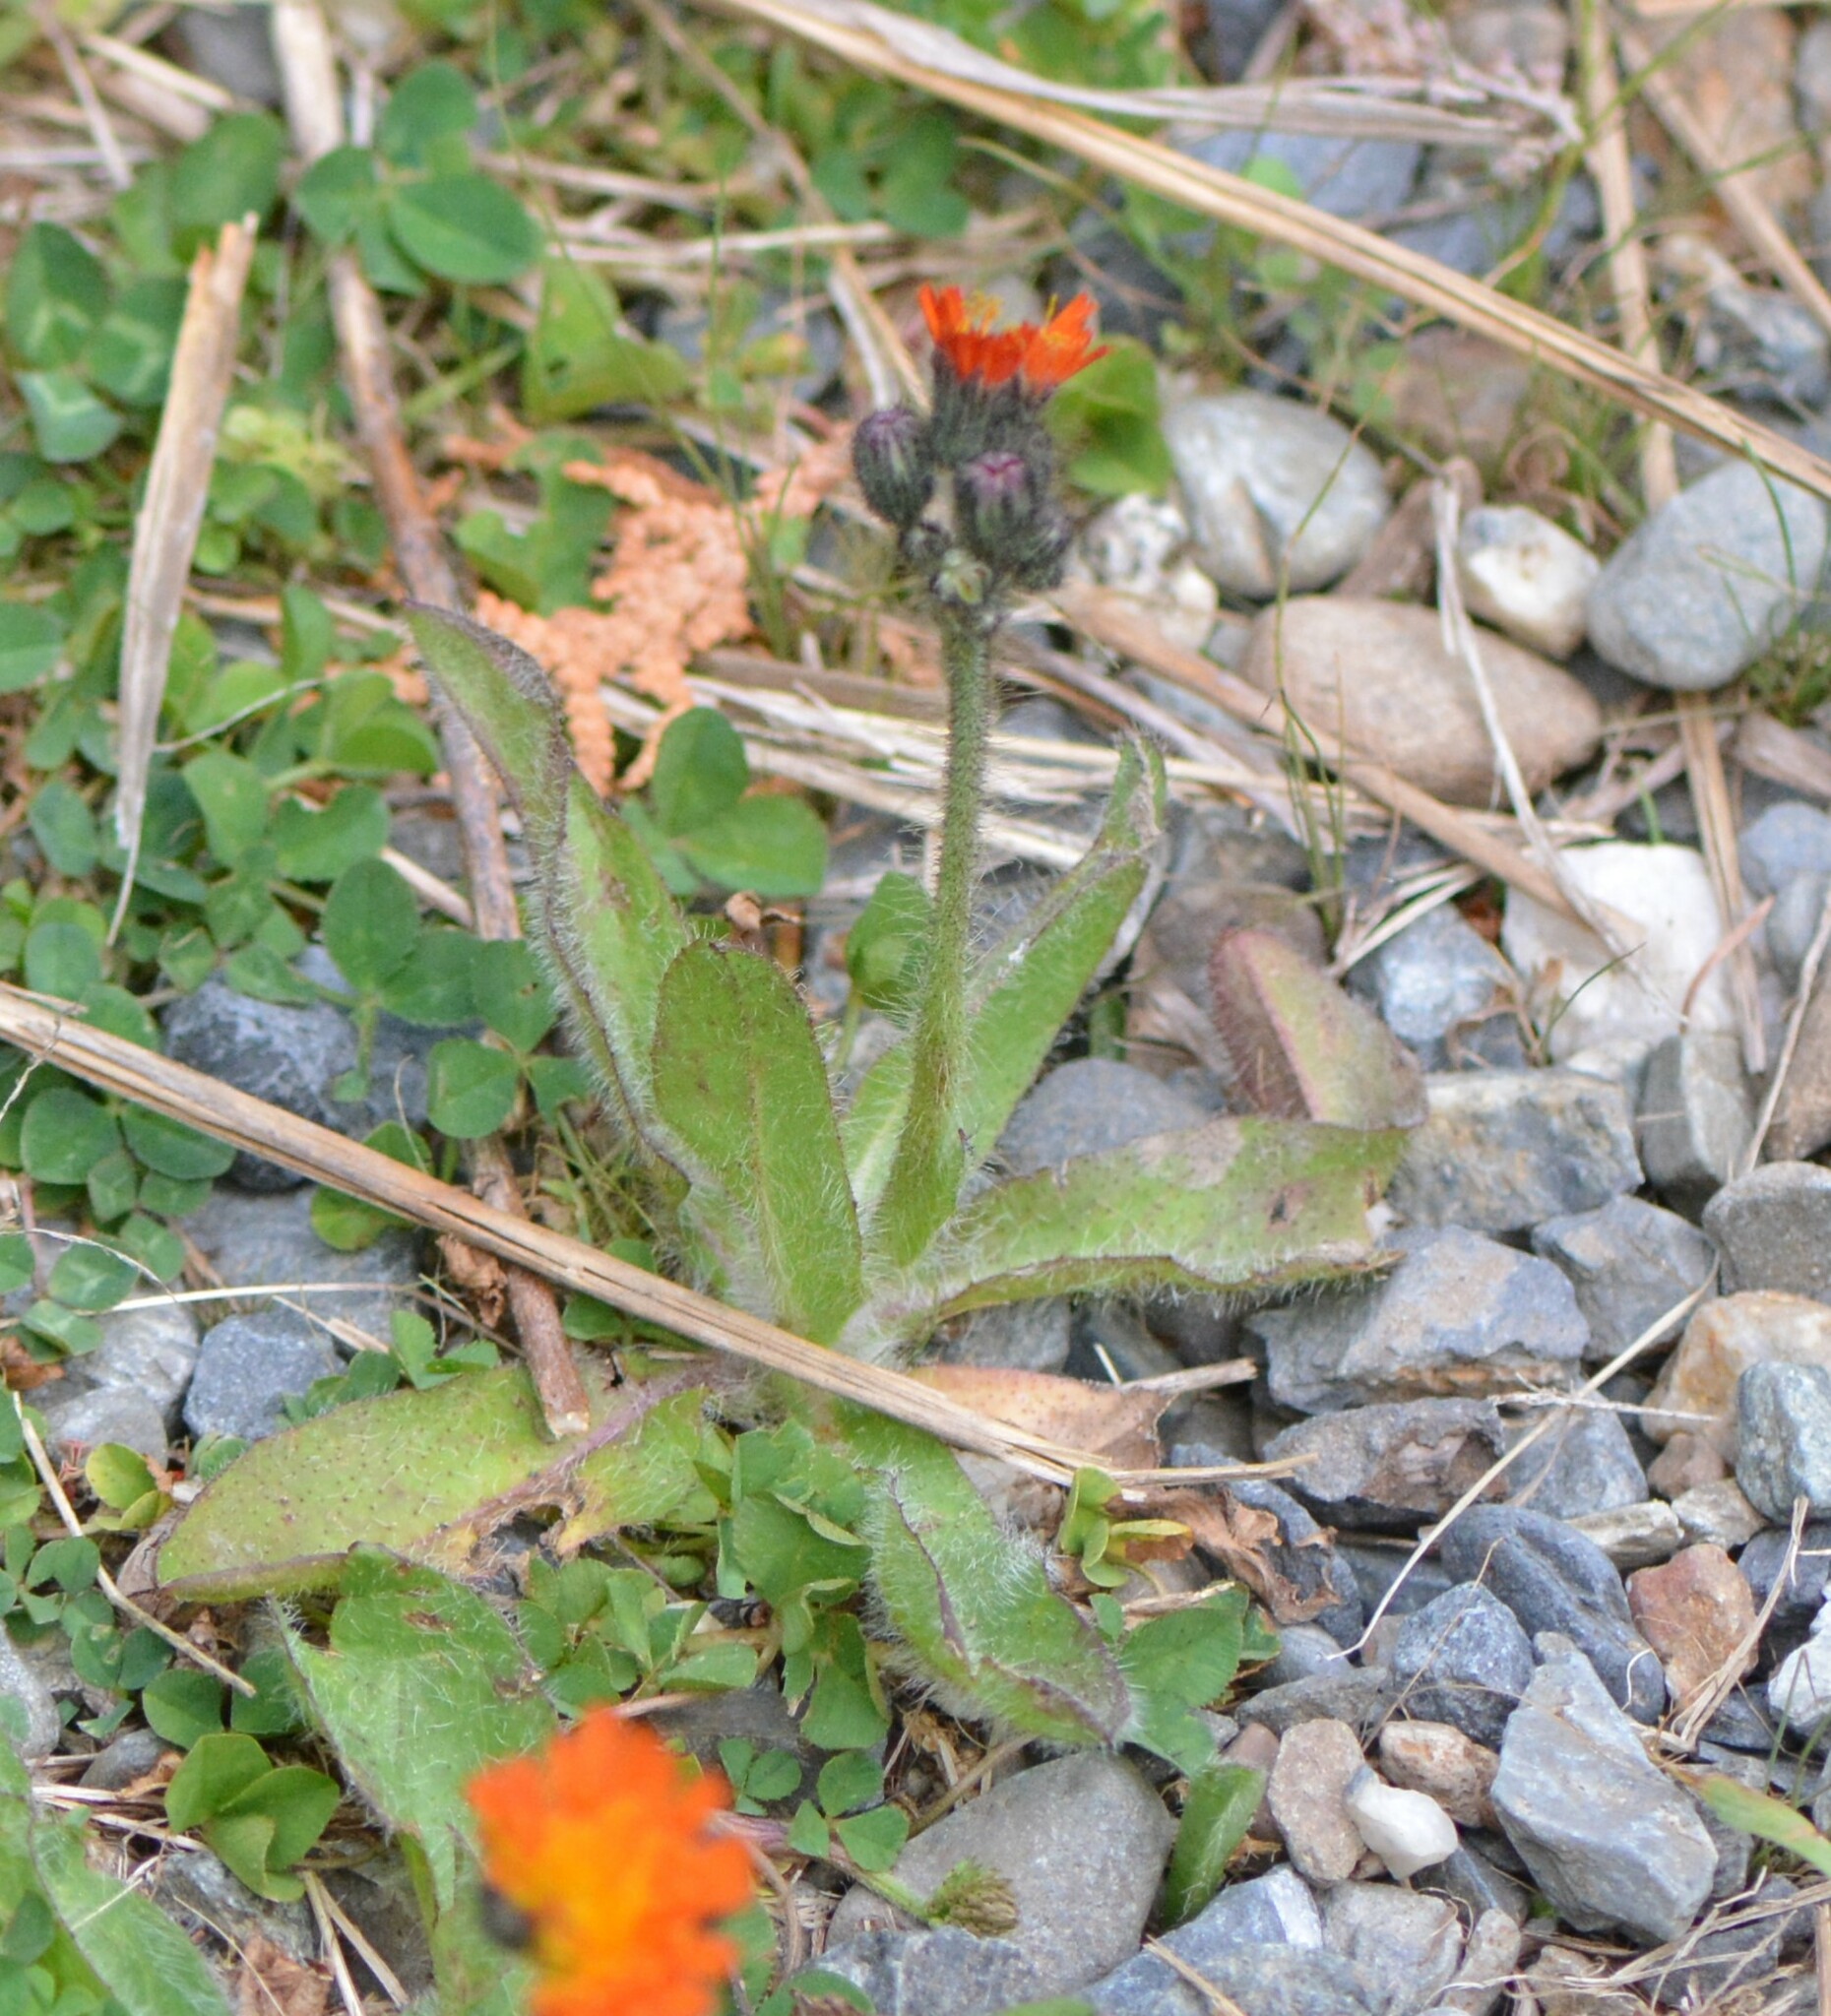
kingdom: Plantae
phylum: Tracheophyta
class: Magnoliopsida
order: Asterales
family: Asteraceae
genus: Pilosella
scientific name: Pilosella aurantiaca
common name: Fox-and-cubs
